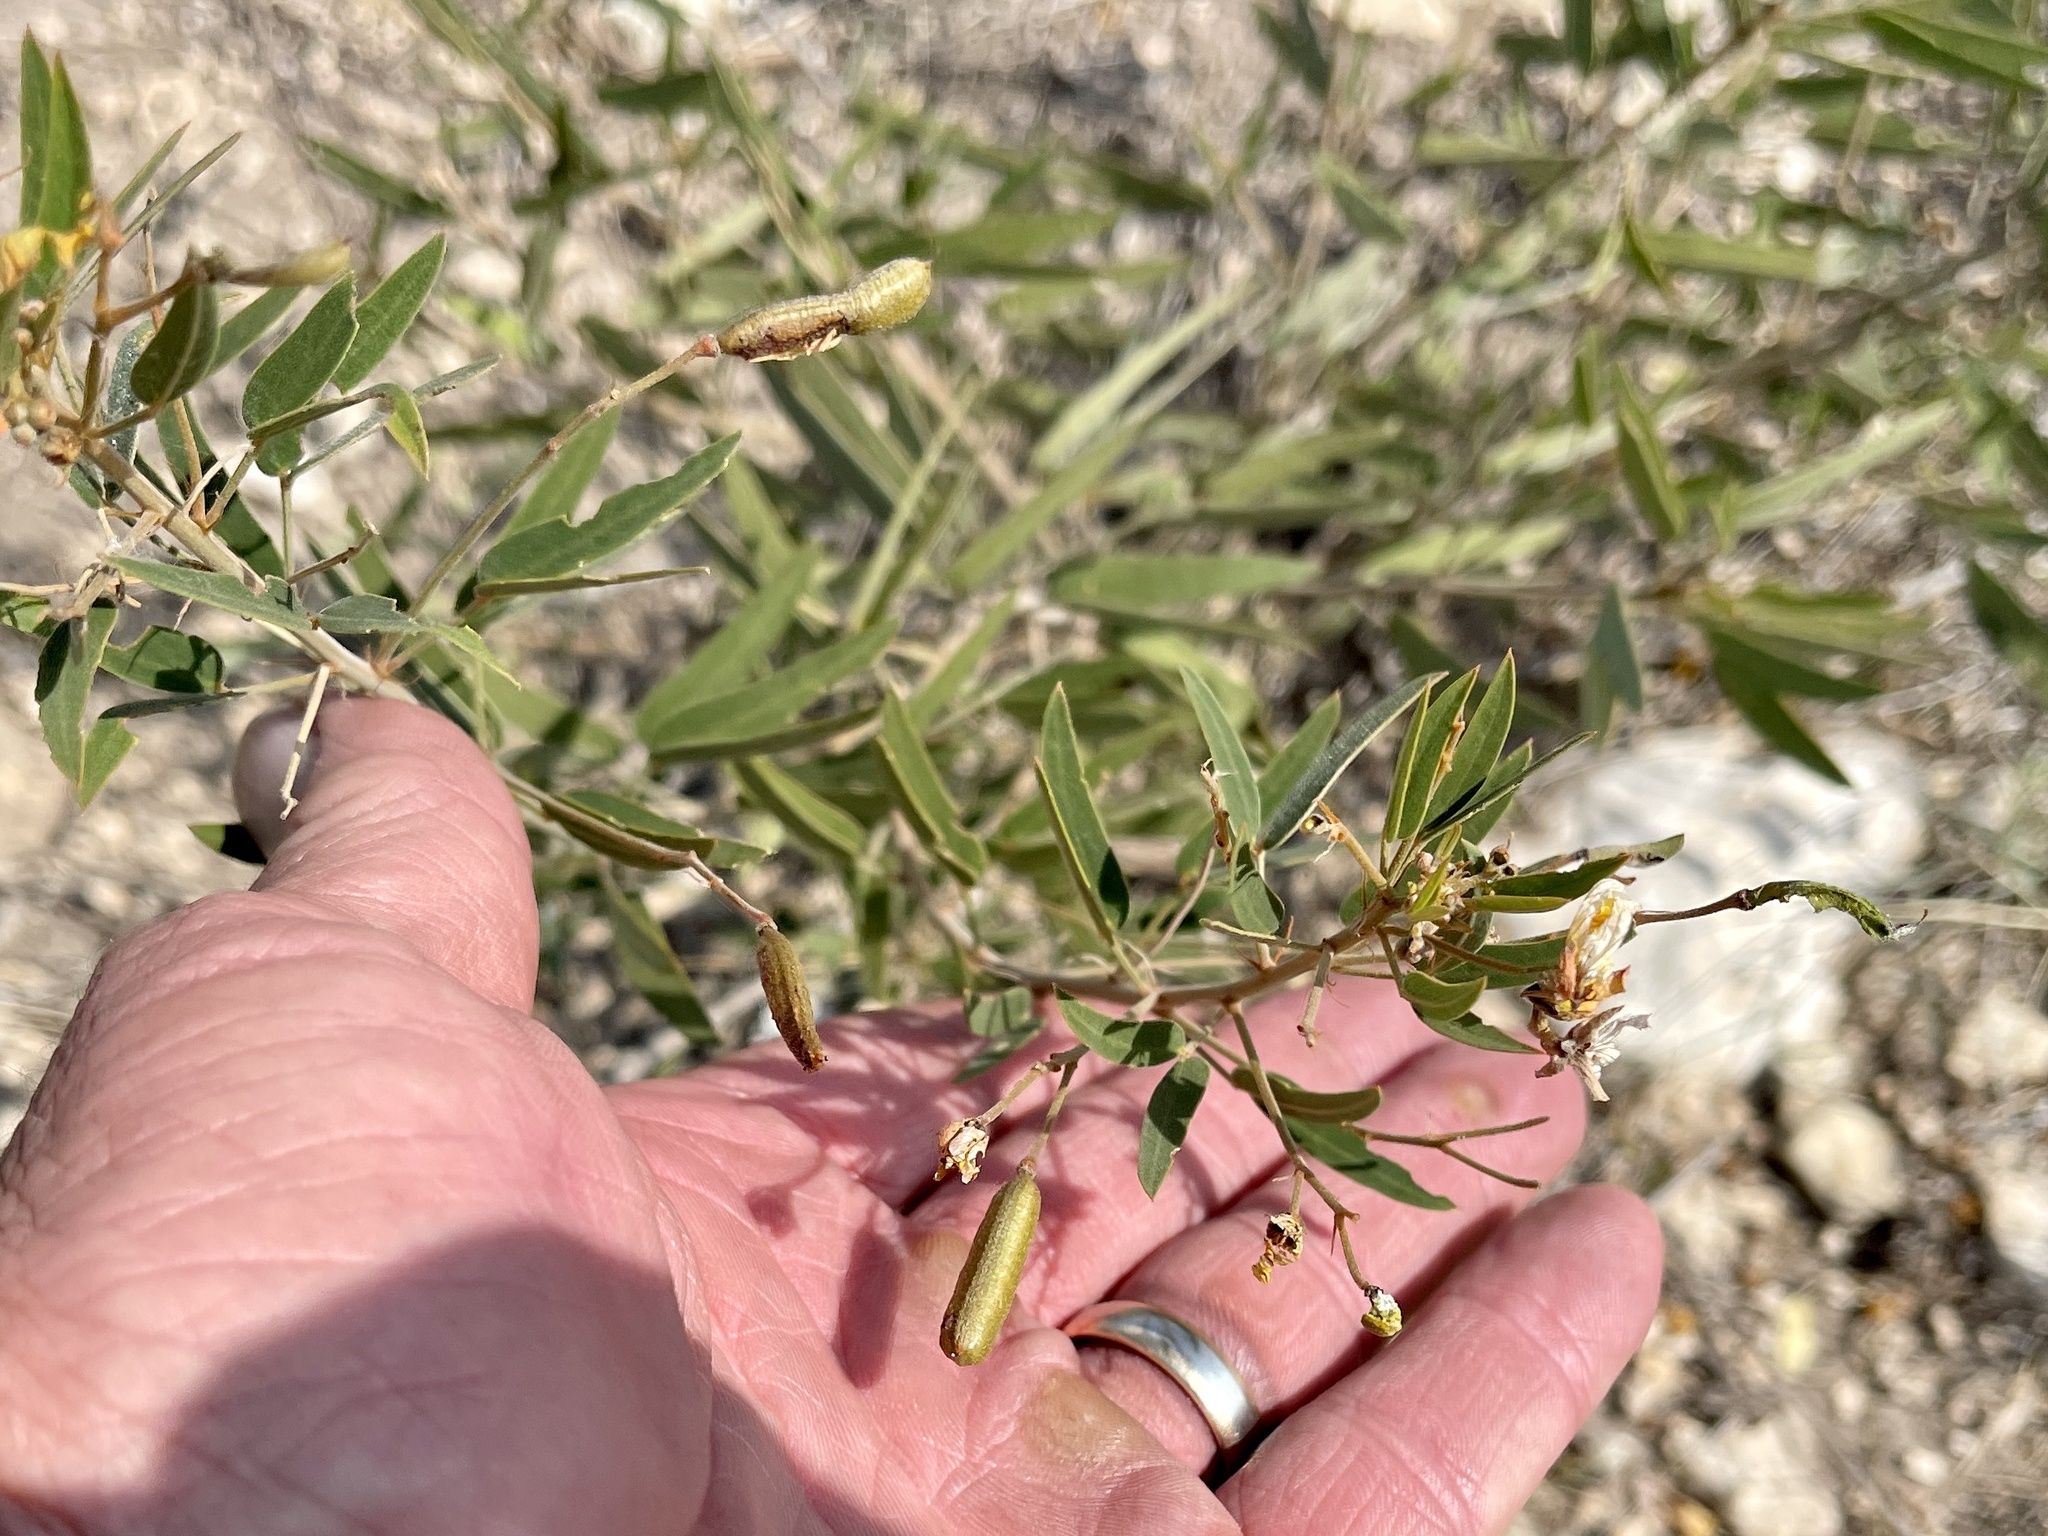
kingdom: Plantae
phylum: Tracheophyta
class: Magnoliopsida
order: Fabales
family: Fabaceae
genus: Senna
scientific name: Senna roemeriana
